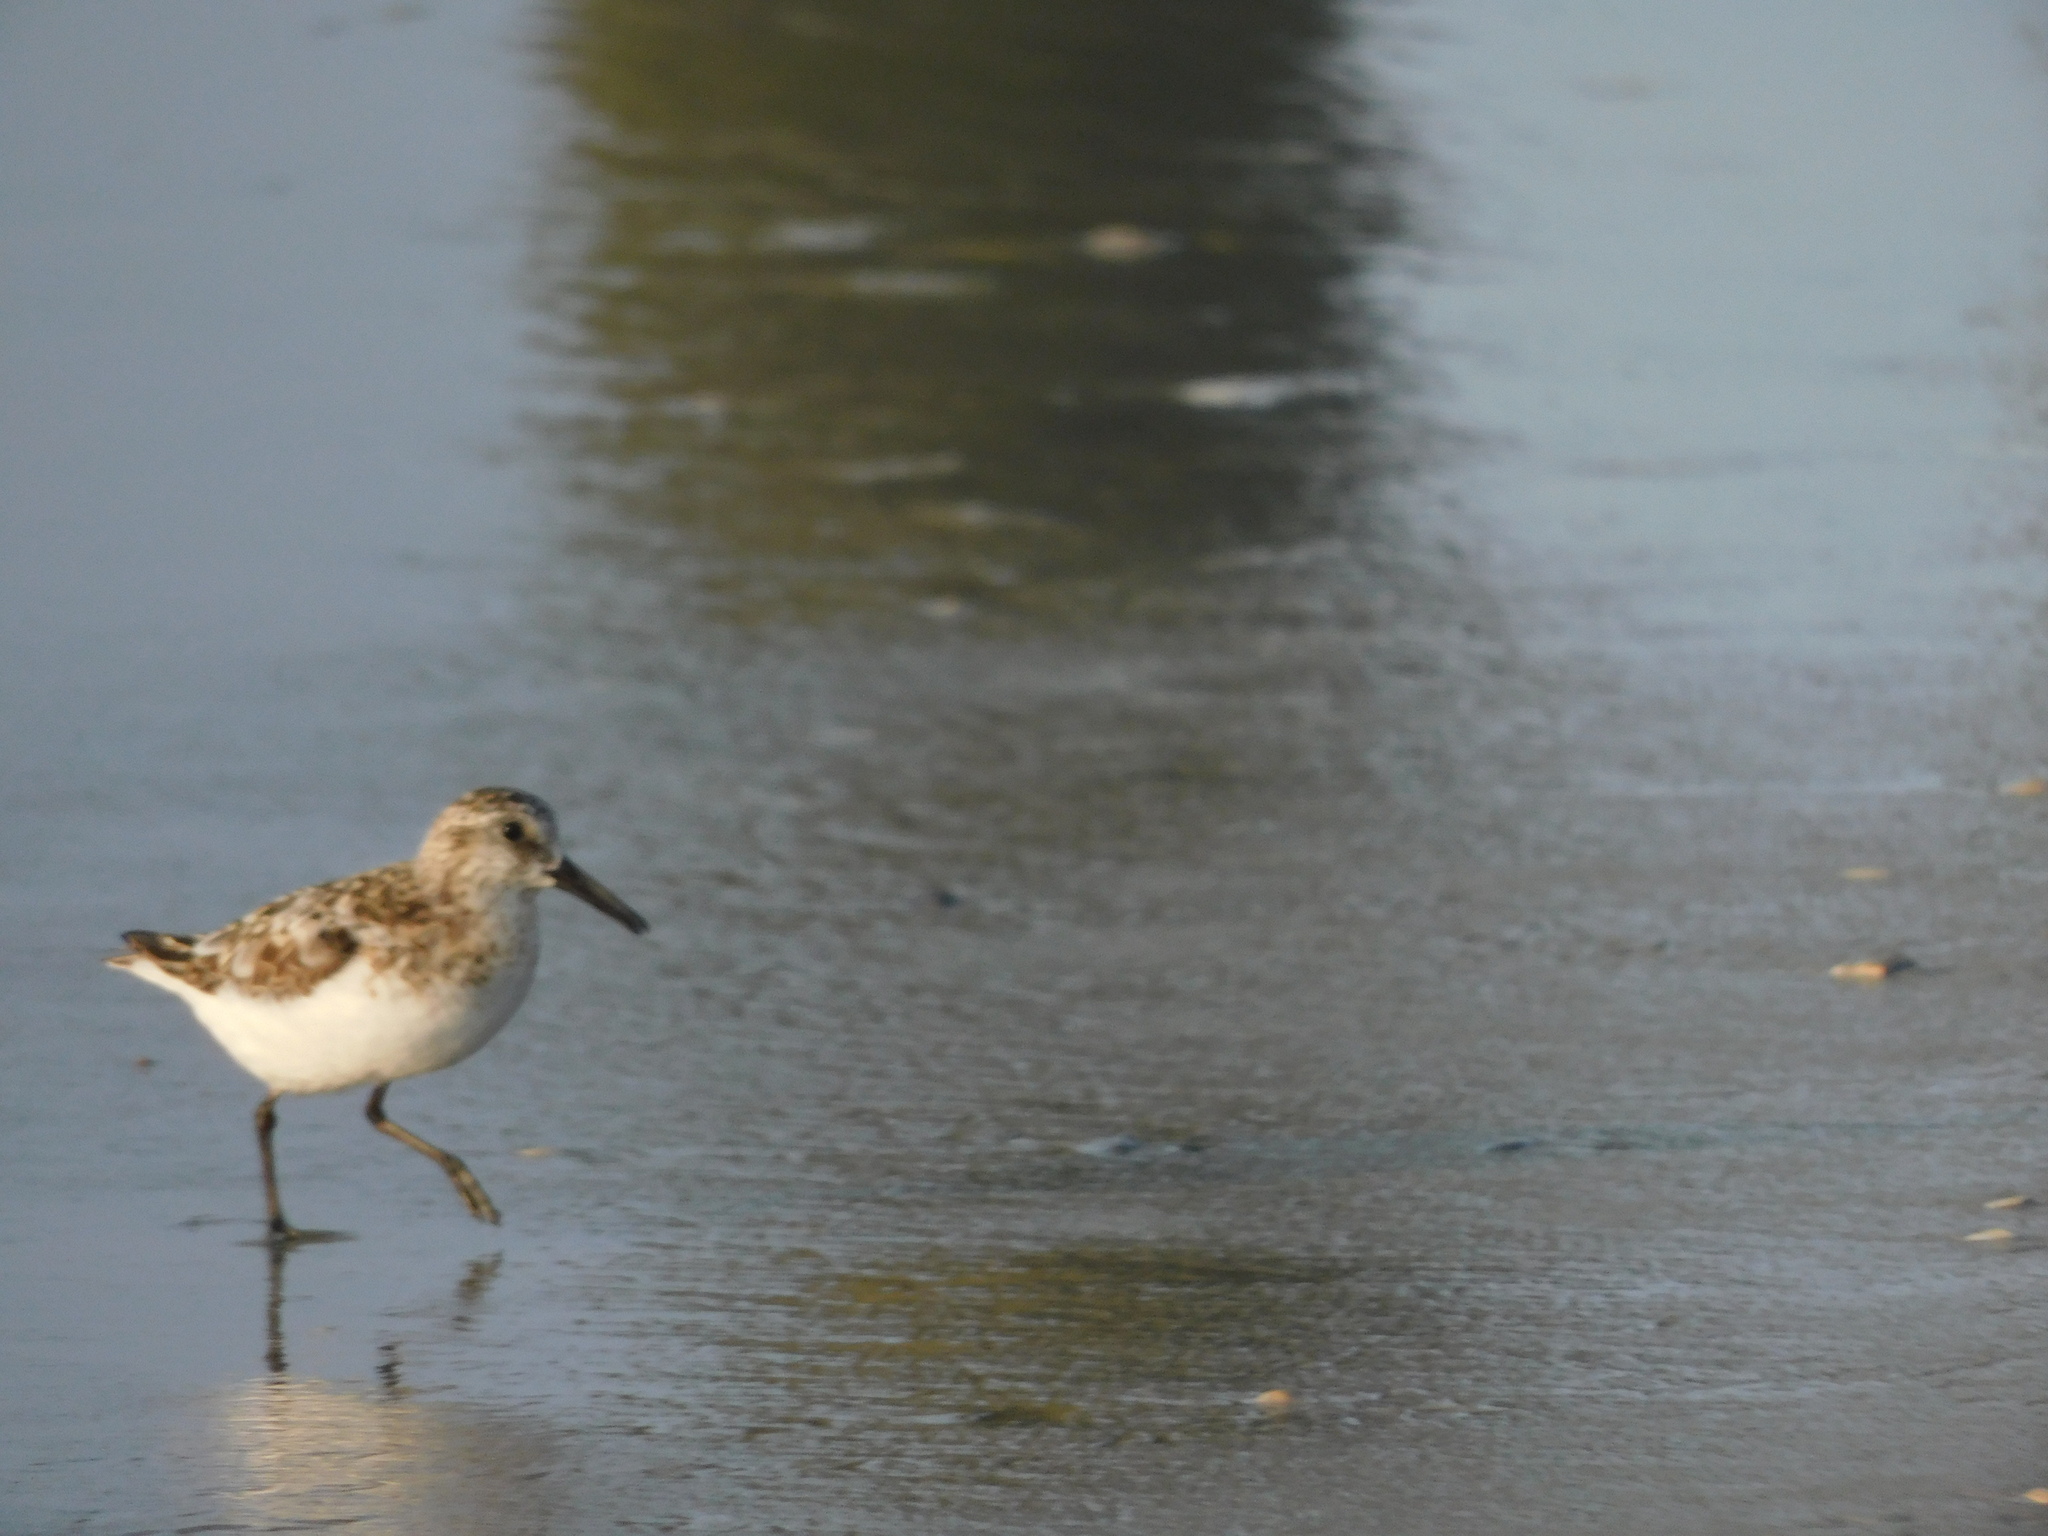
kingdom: Animalia
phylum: Chordata
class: Aves
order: Charadriiformes
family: Scolopacidae
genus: Calidris
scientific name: Calidris alba
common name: Sanderling
